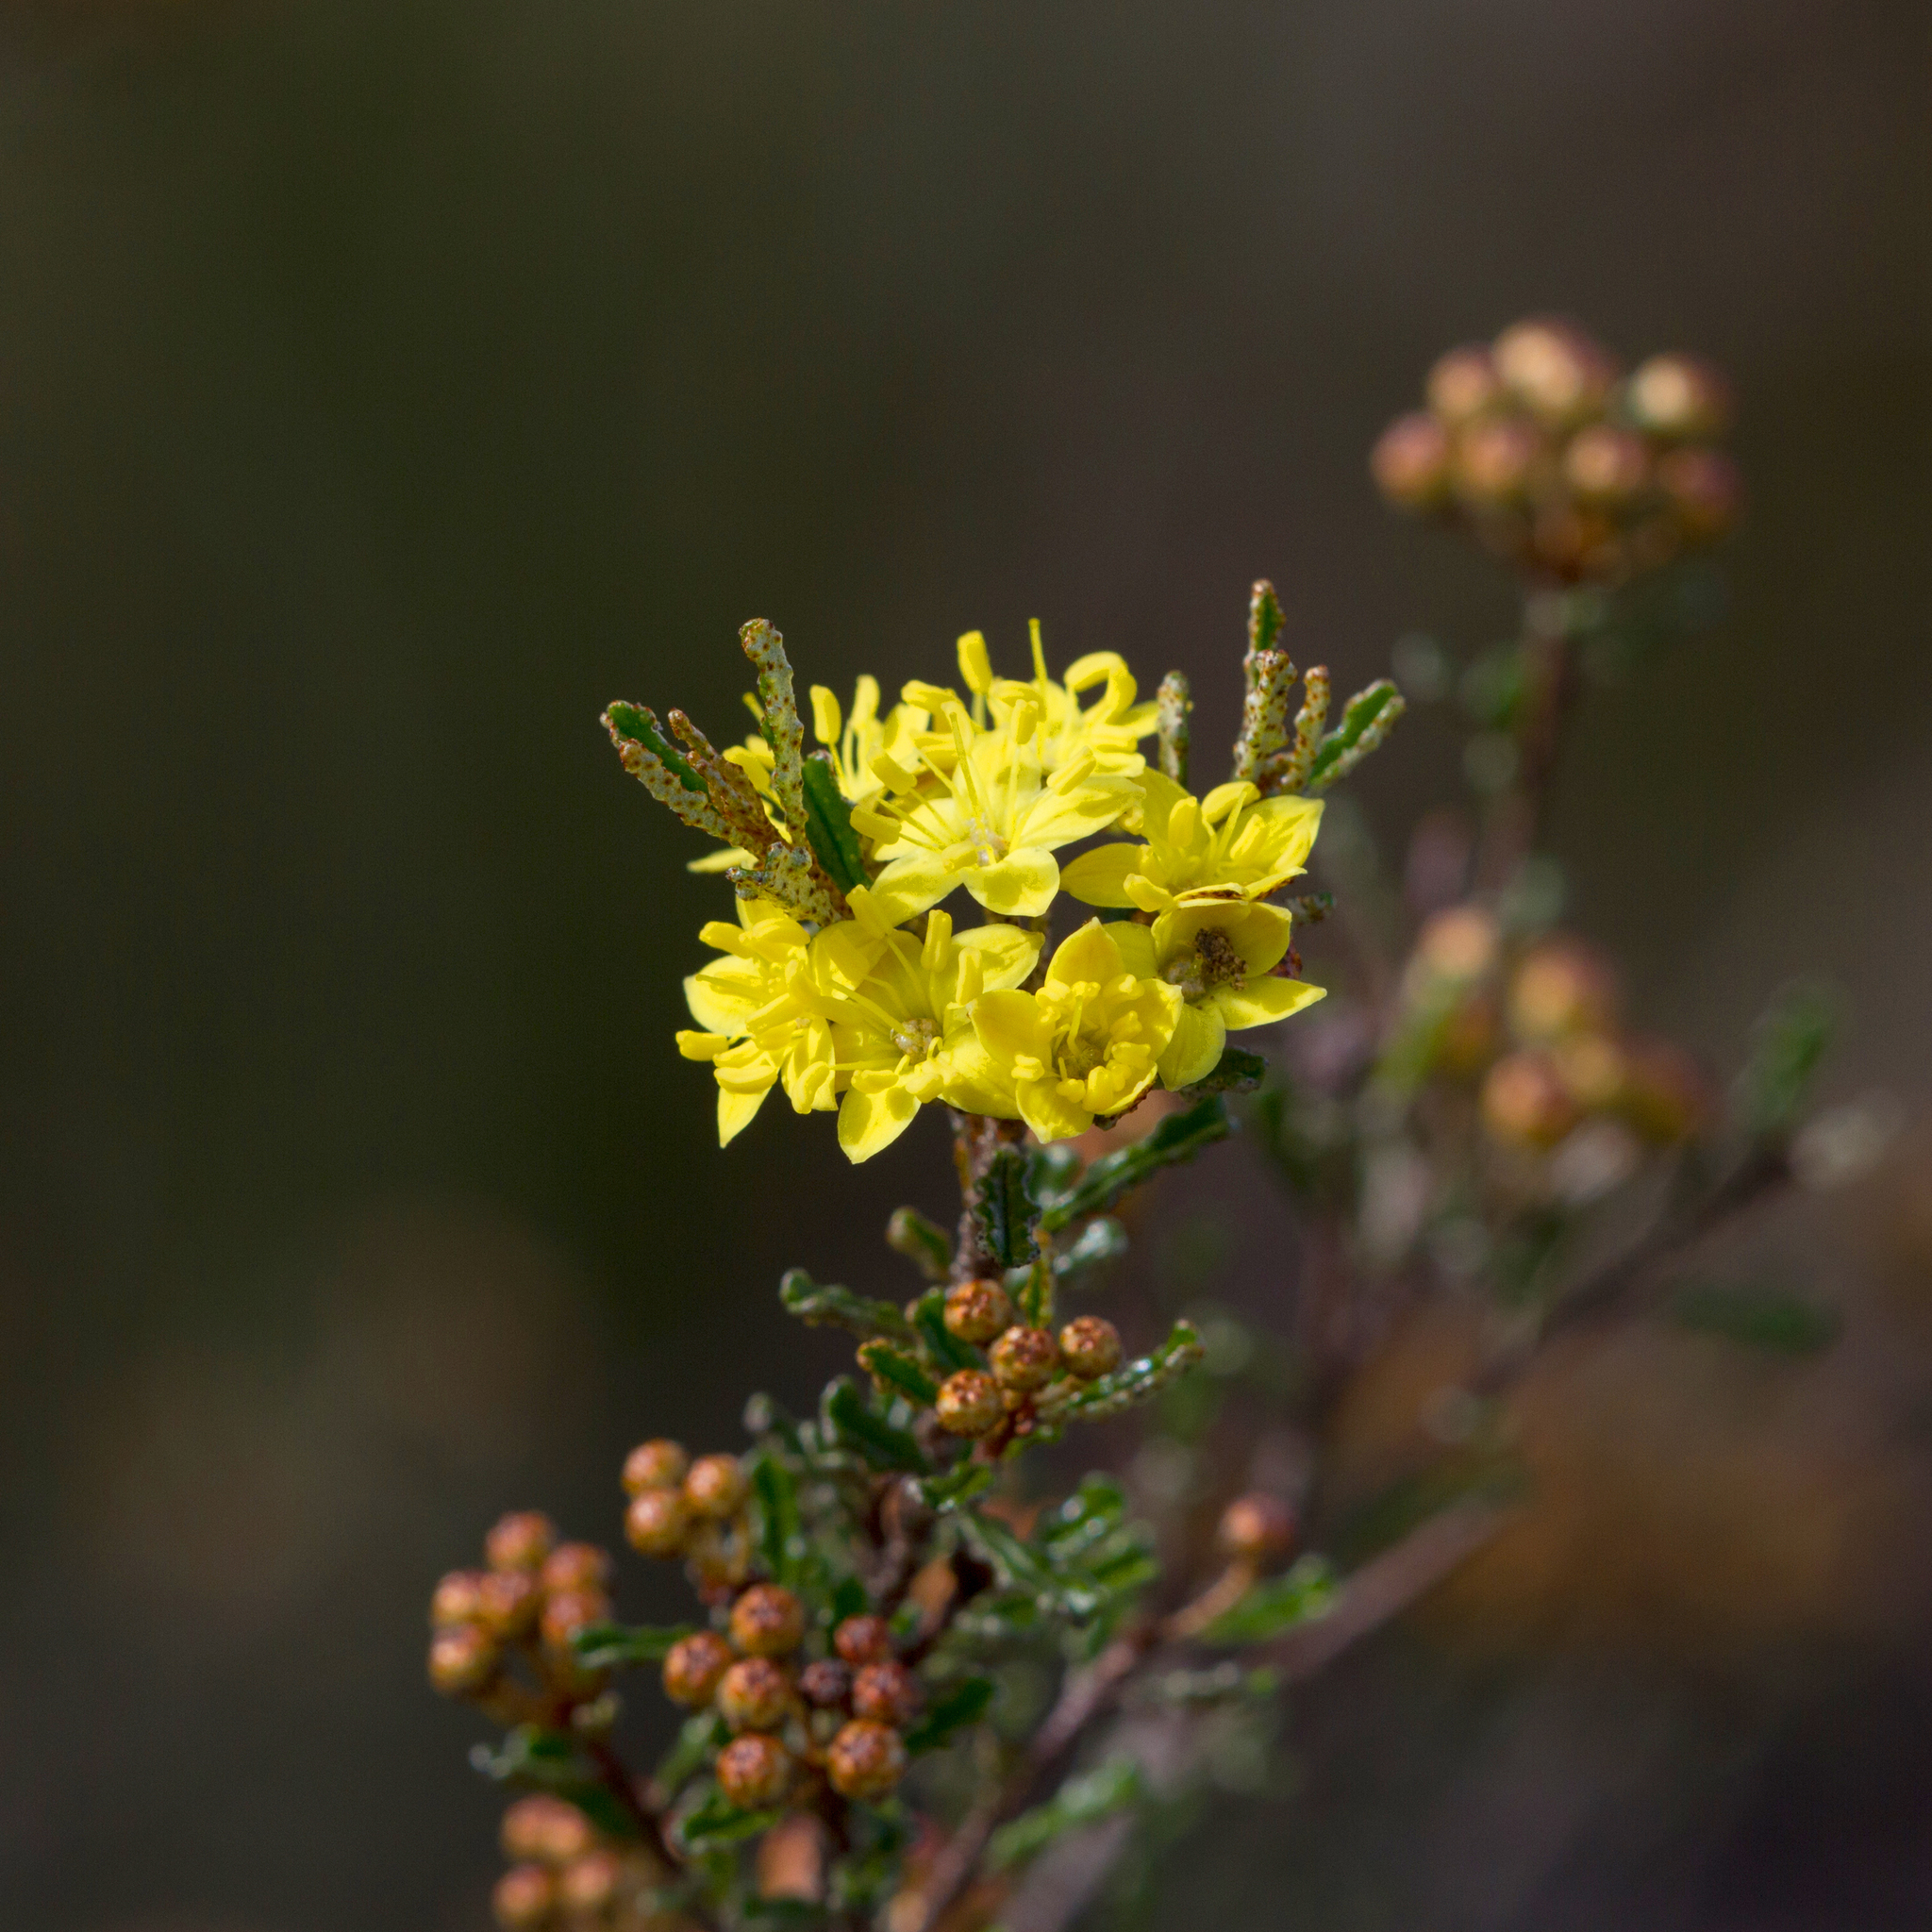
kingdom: Plantae
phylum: Tracheophyta
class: Magnoliopsida
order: Sapindales
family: Rutaceae
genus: Phebalium
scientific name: Phebalium bullatum
